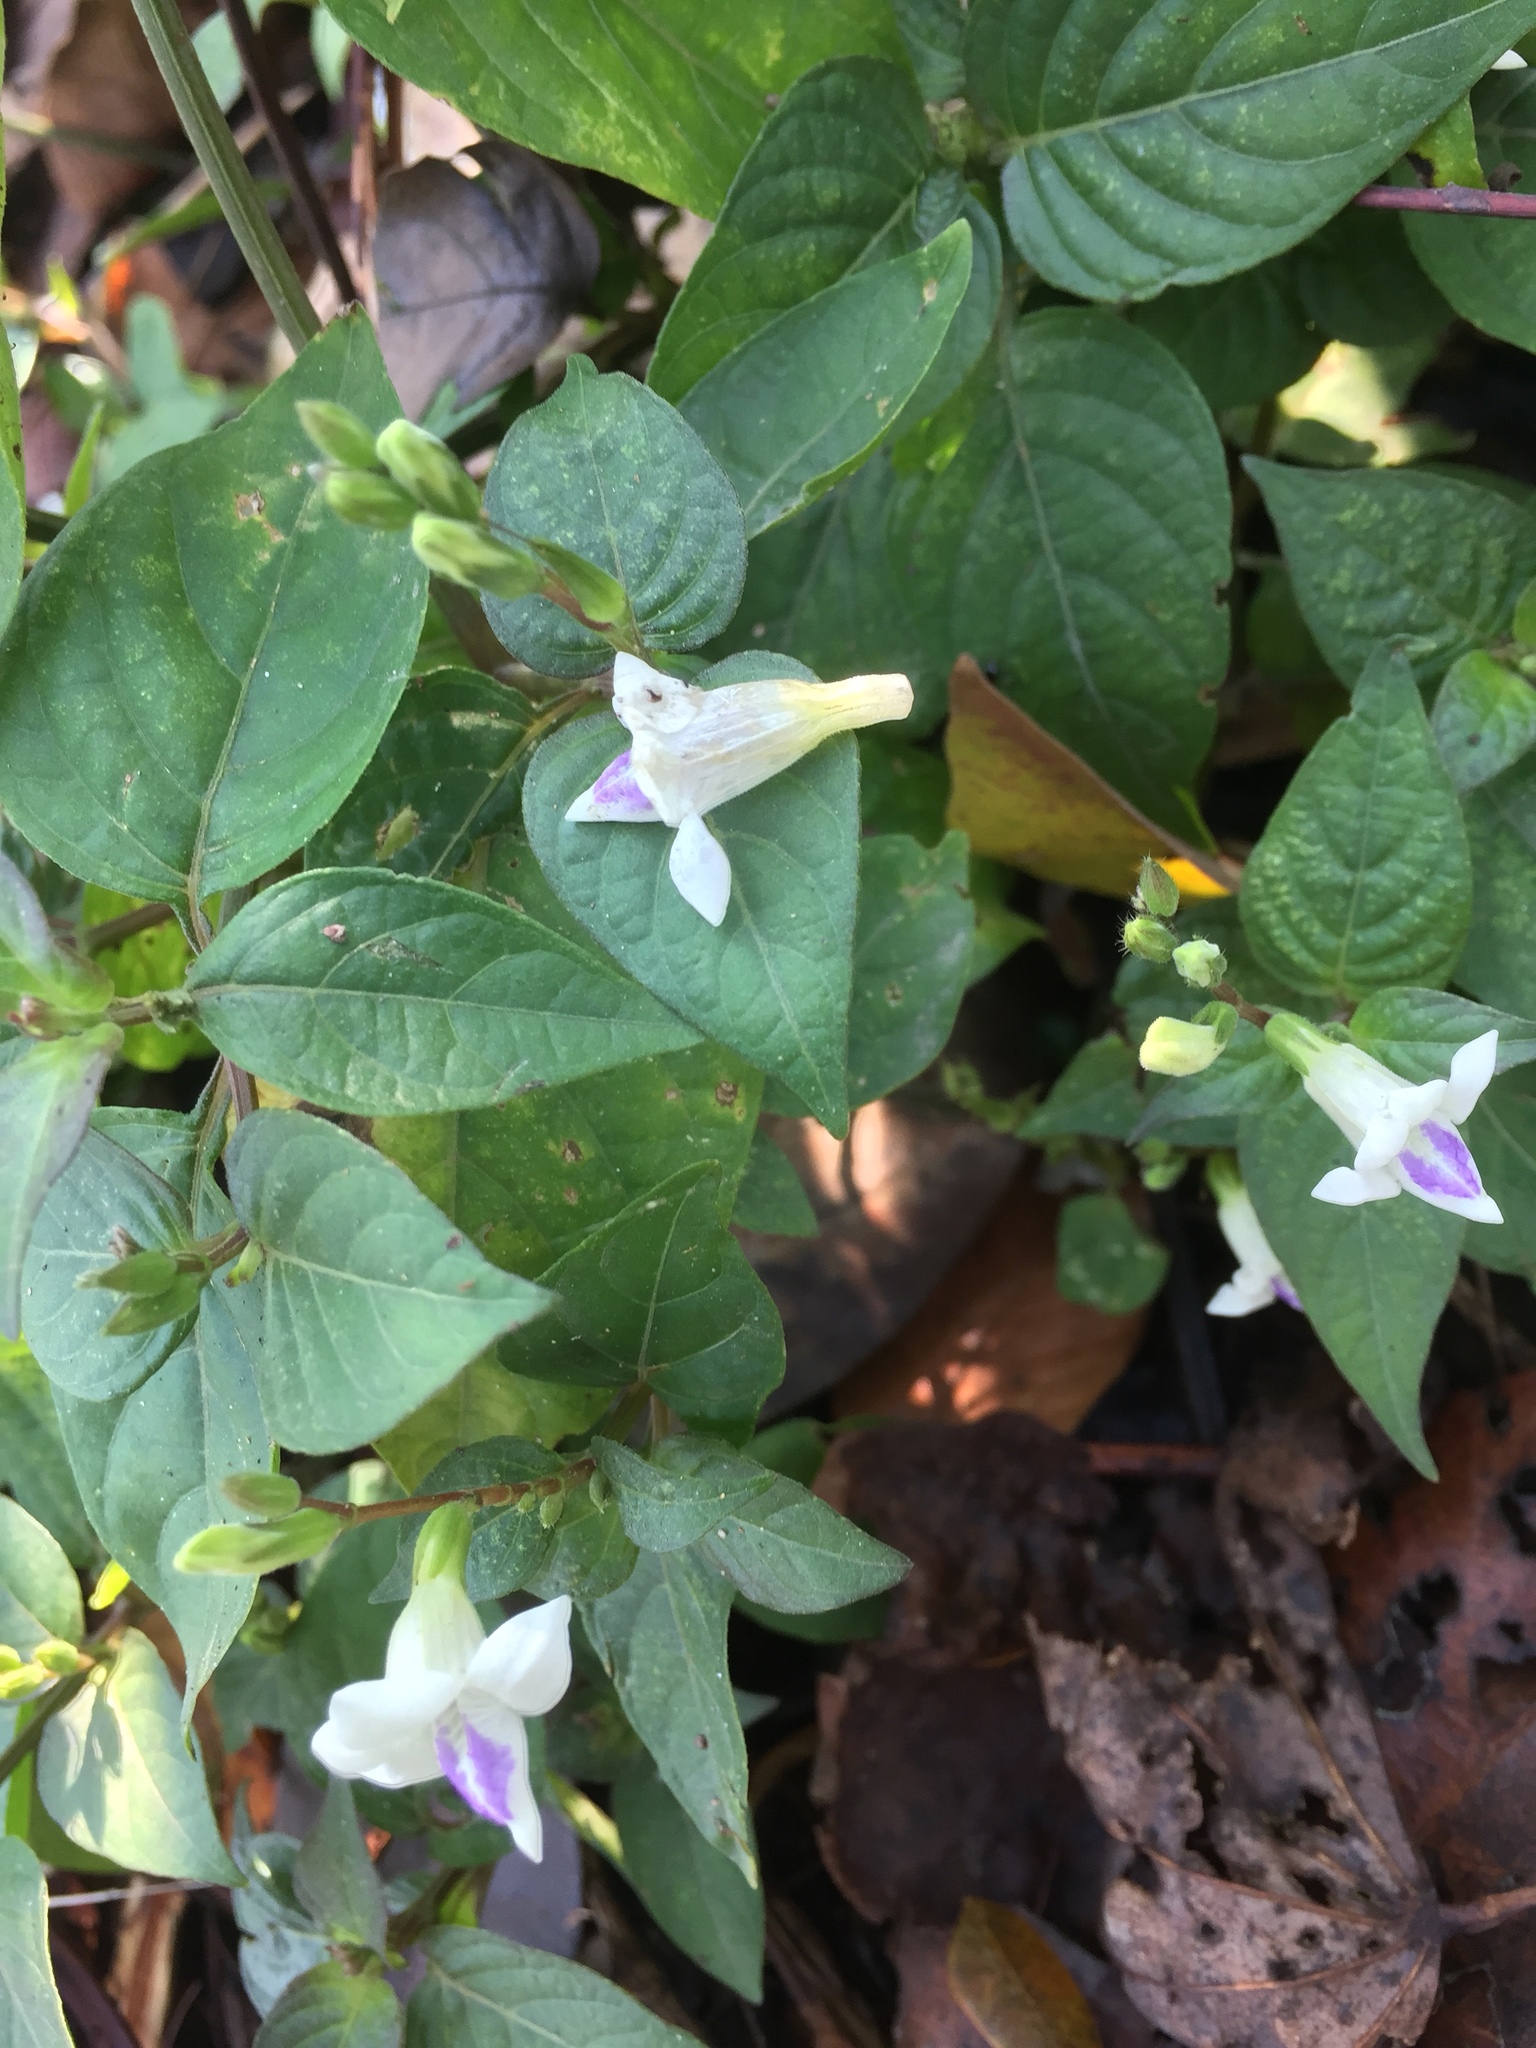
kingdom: Plantae
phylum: Tracheophyta
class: Magnoliopsida
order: Lamiales
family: Acanthaceae
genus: Asystasia
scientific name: Asystasia gangetica
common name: Chinese violet
